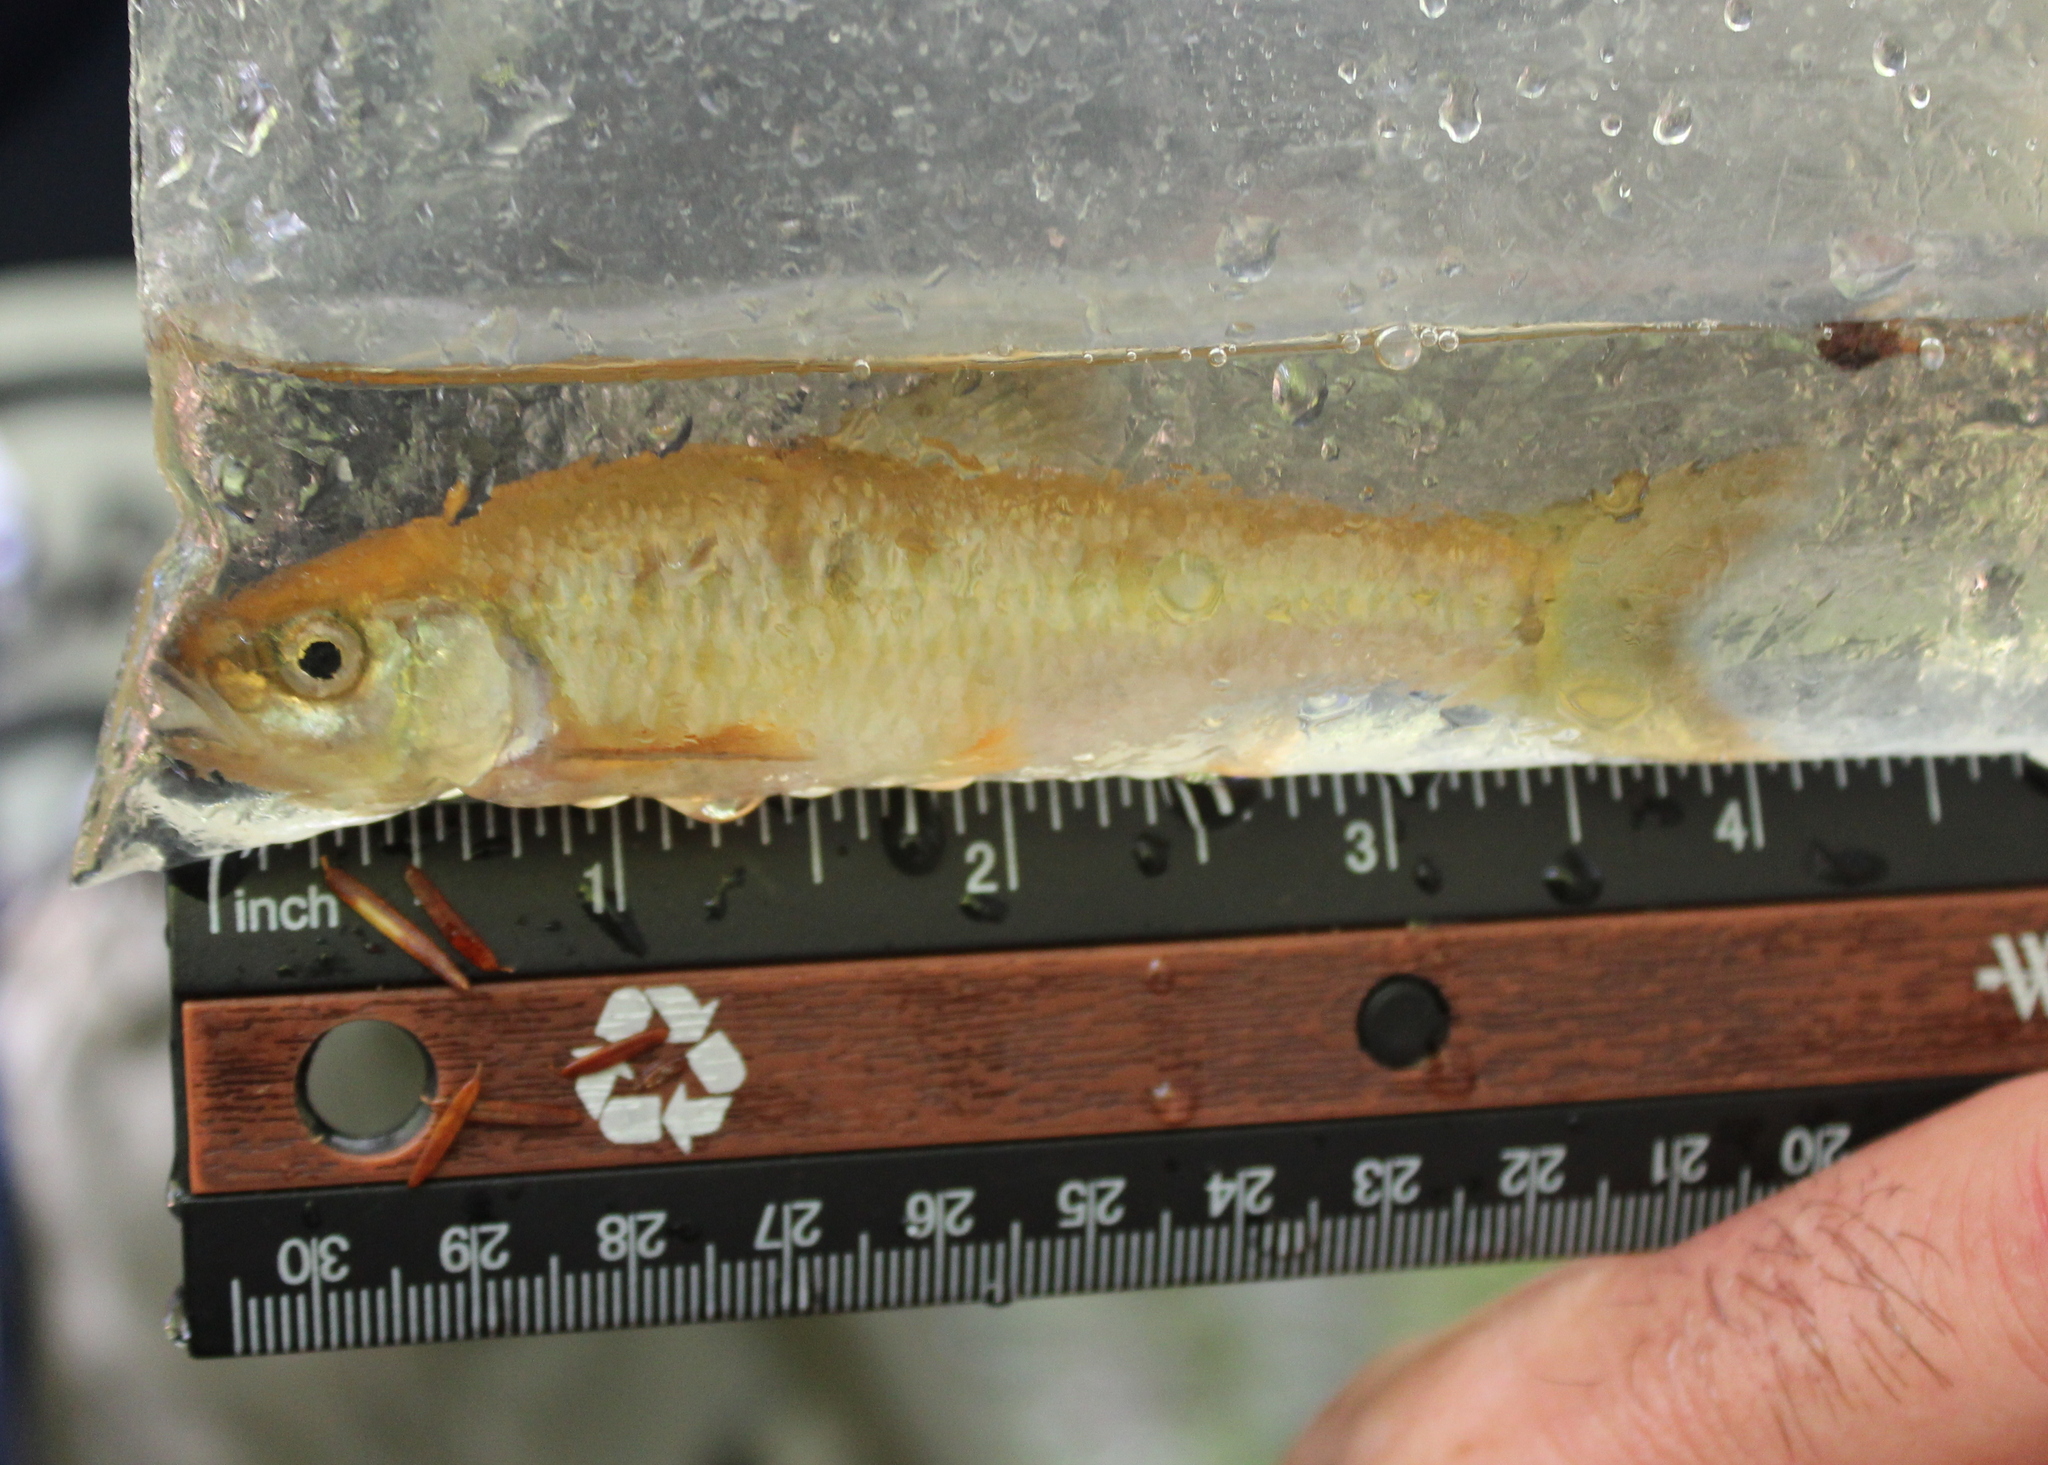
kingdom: Animalia
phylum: Chordata
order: Cypriniformes
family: Cyprinidae
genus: Luxilus
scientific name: Luxilus cornutus
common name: Common shiner
